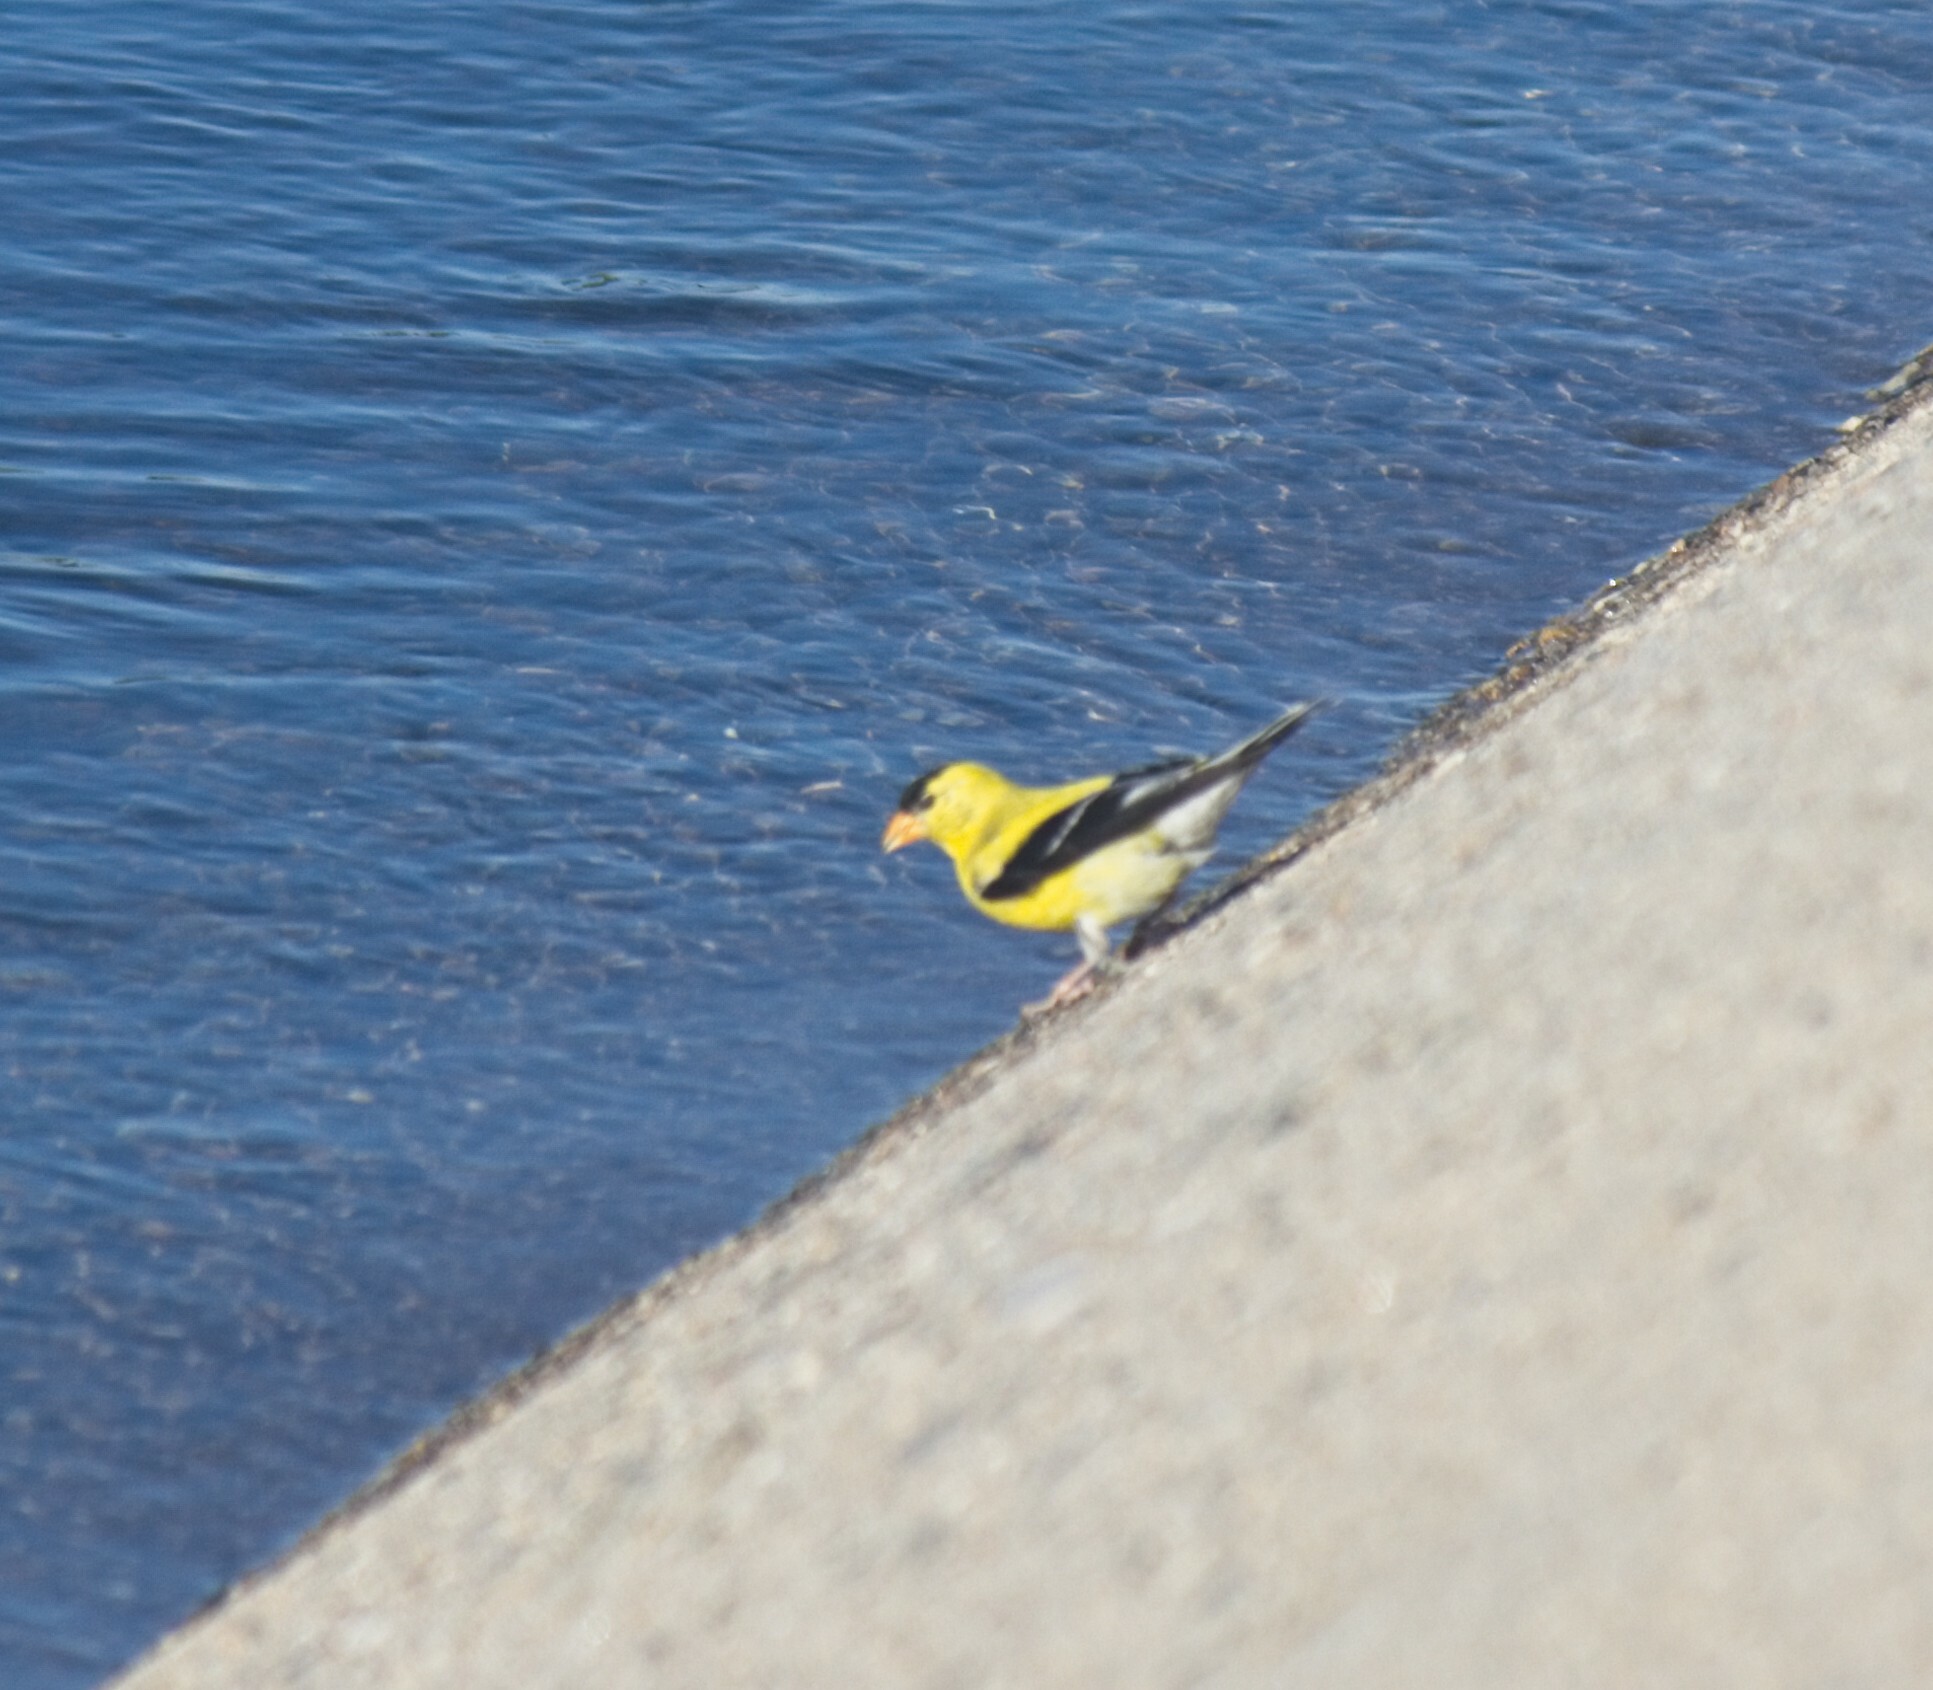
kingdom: Animalia
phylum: Chordata
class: Aves
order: Passeriformes
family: Fringillidae
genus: Spinus
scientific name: Spinus tristis
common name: American goldfinch
